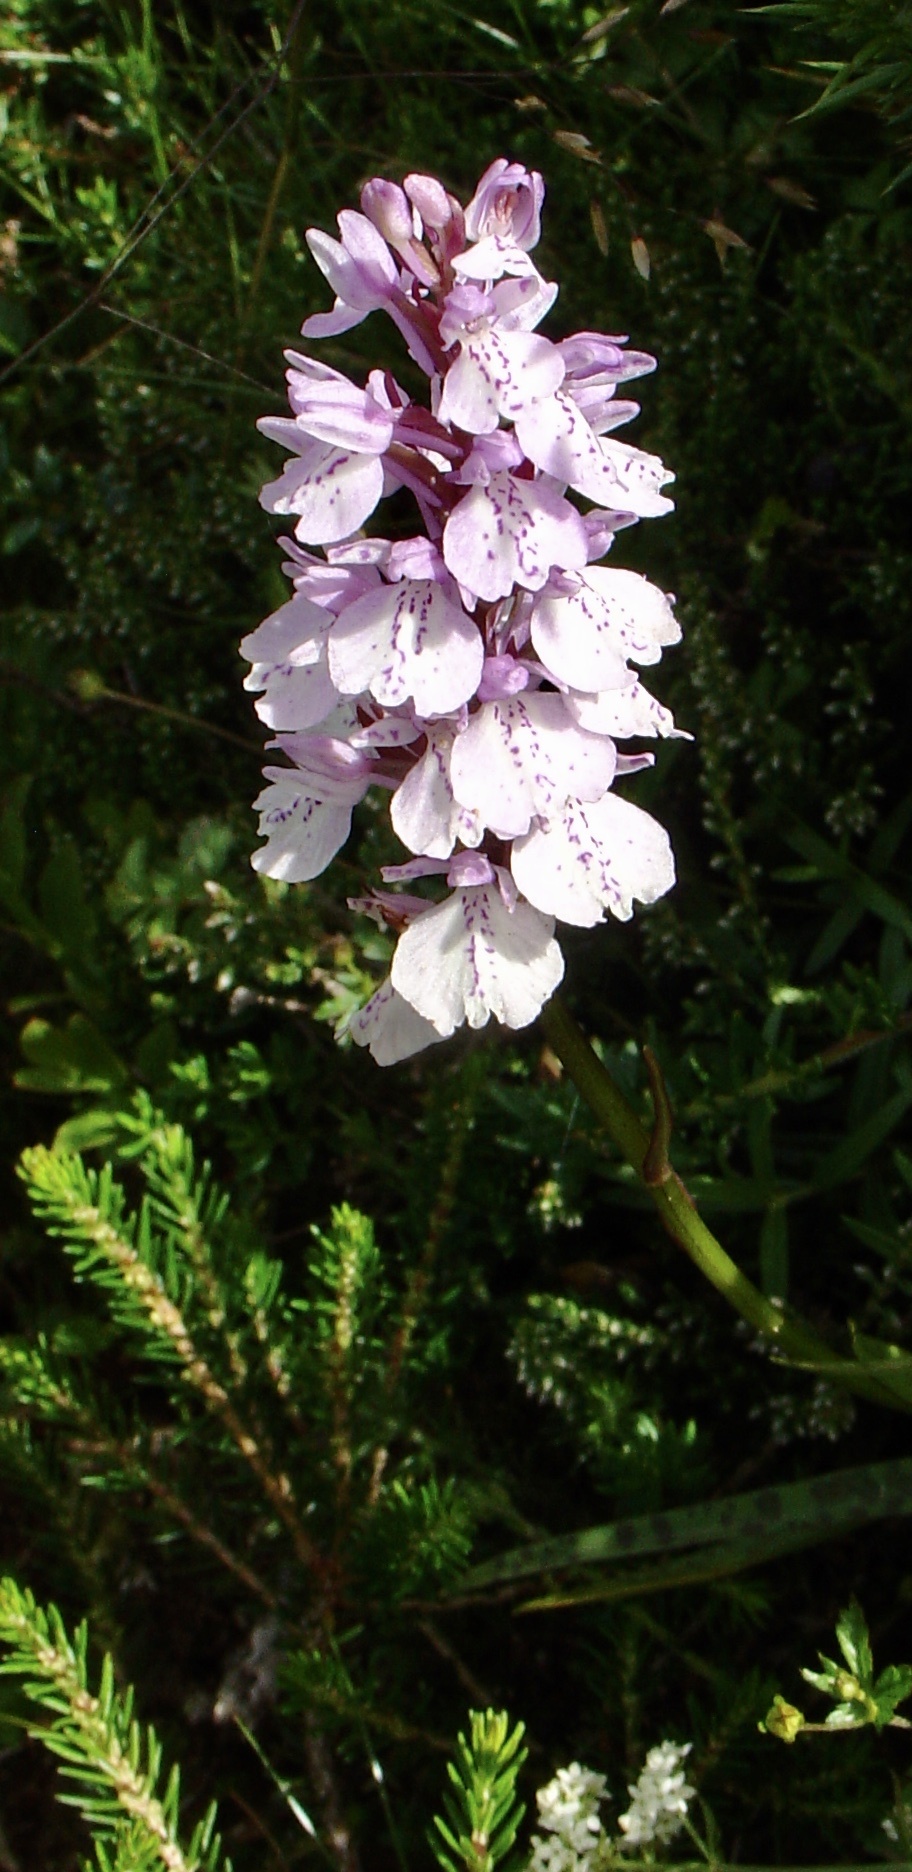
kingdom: Plantae
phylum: Tracheophyta
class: Liliopsida
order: Asparagales
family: Orchidaceae
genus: Dactylorhiza
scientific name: Dactylorhiza maculata
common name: Heath spotted-orchid
